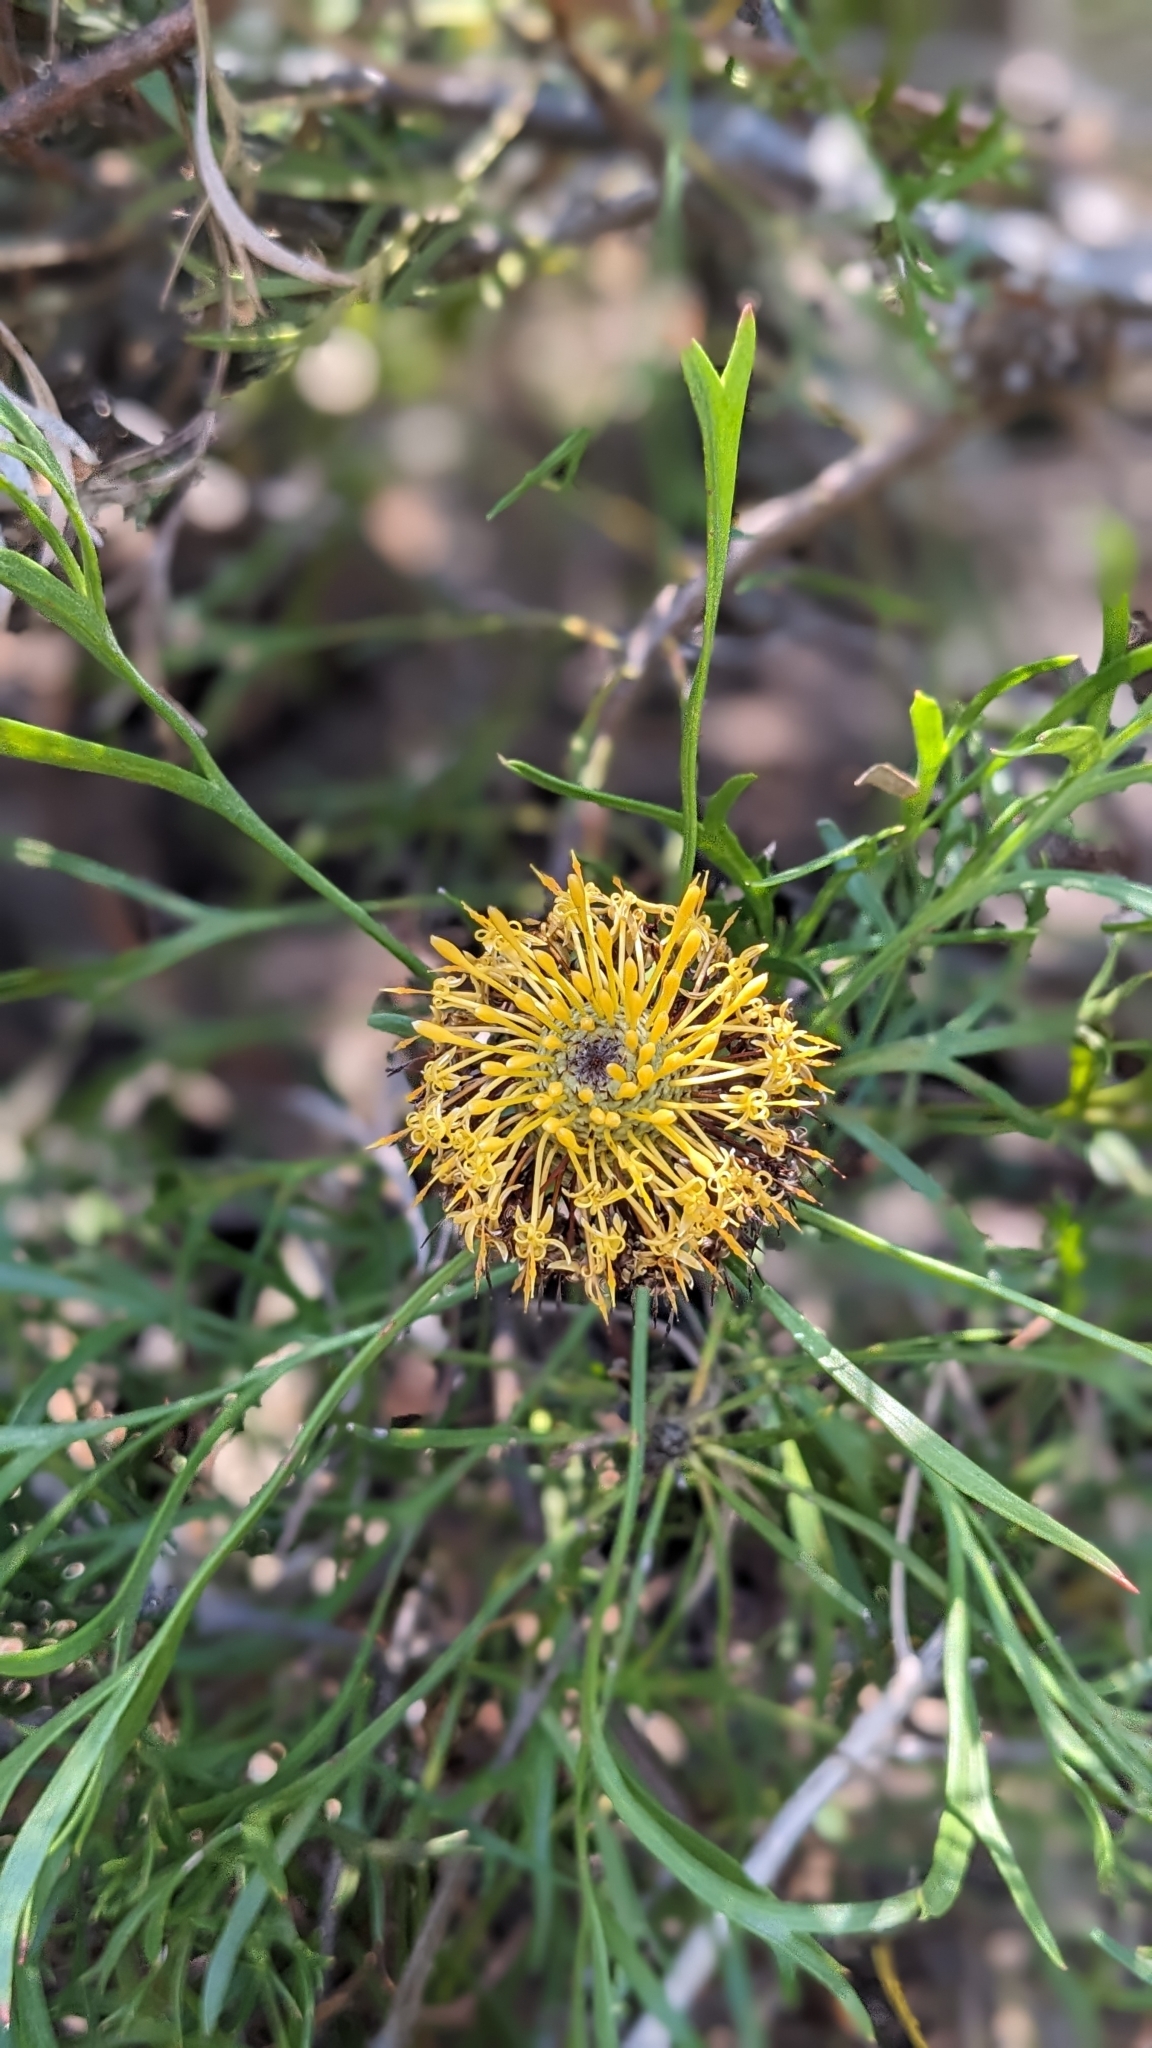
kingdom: Plantae
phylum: Tracheophyta
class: Magnoliopsida
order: Proteales
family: Proteaceae
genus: Isopogon
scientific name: Isopogon anemonifolius
